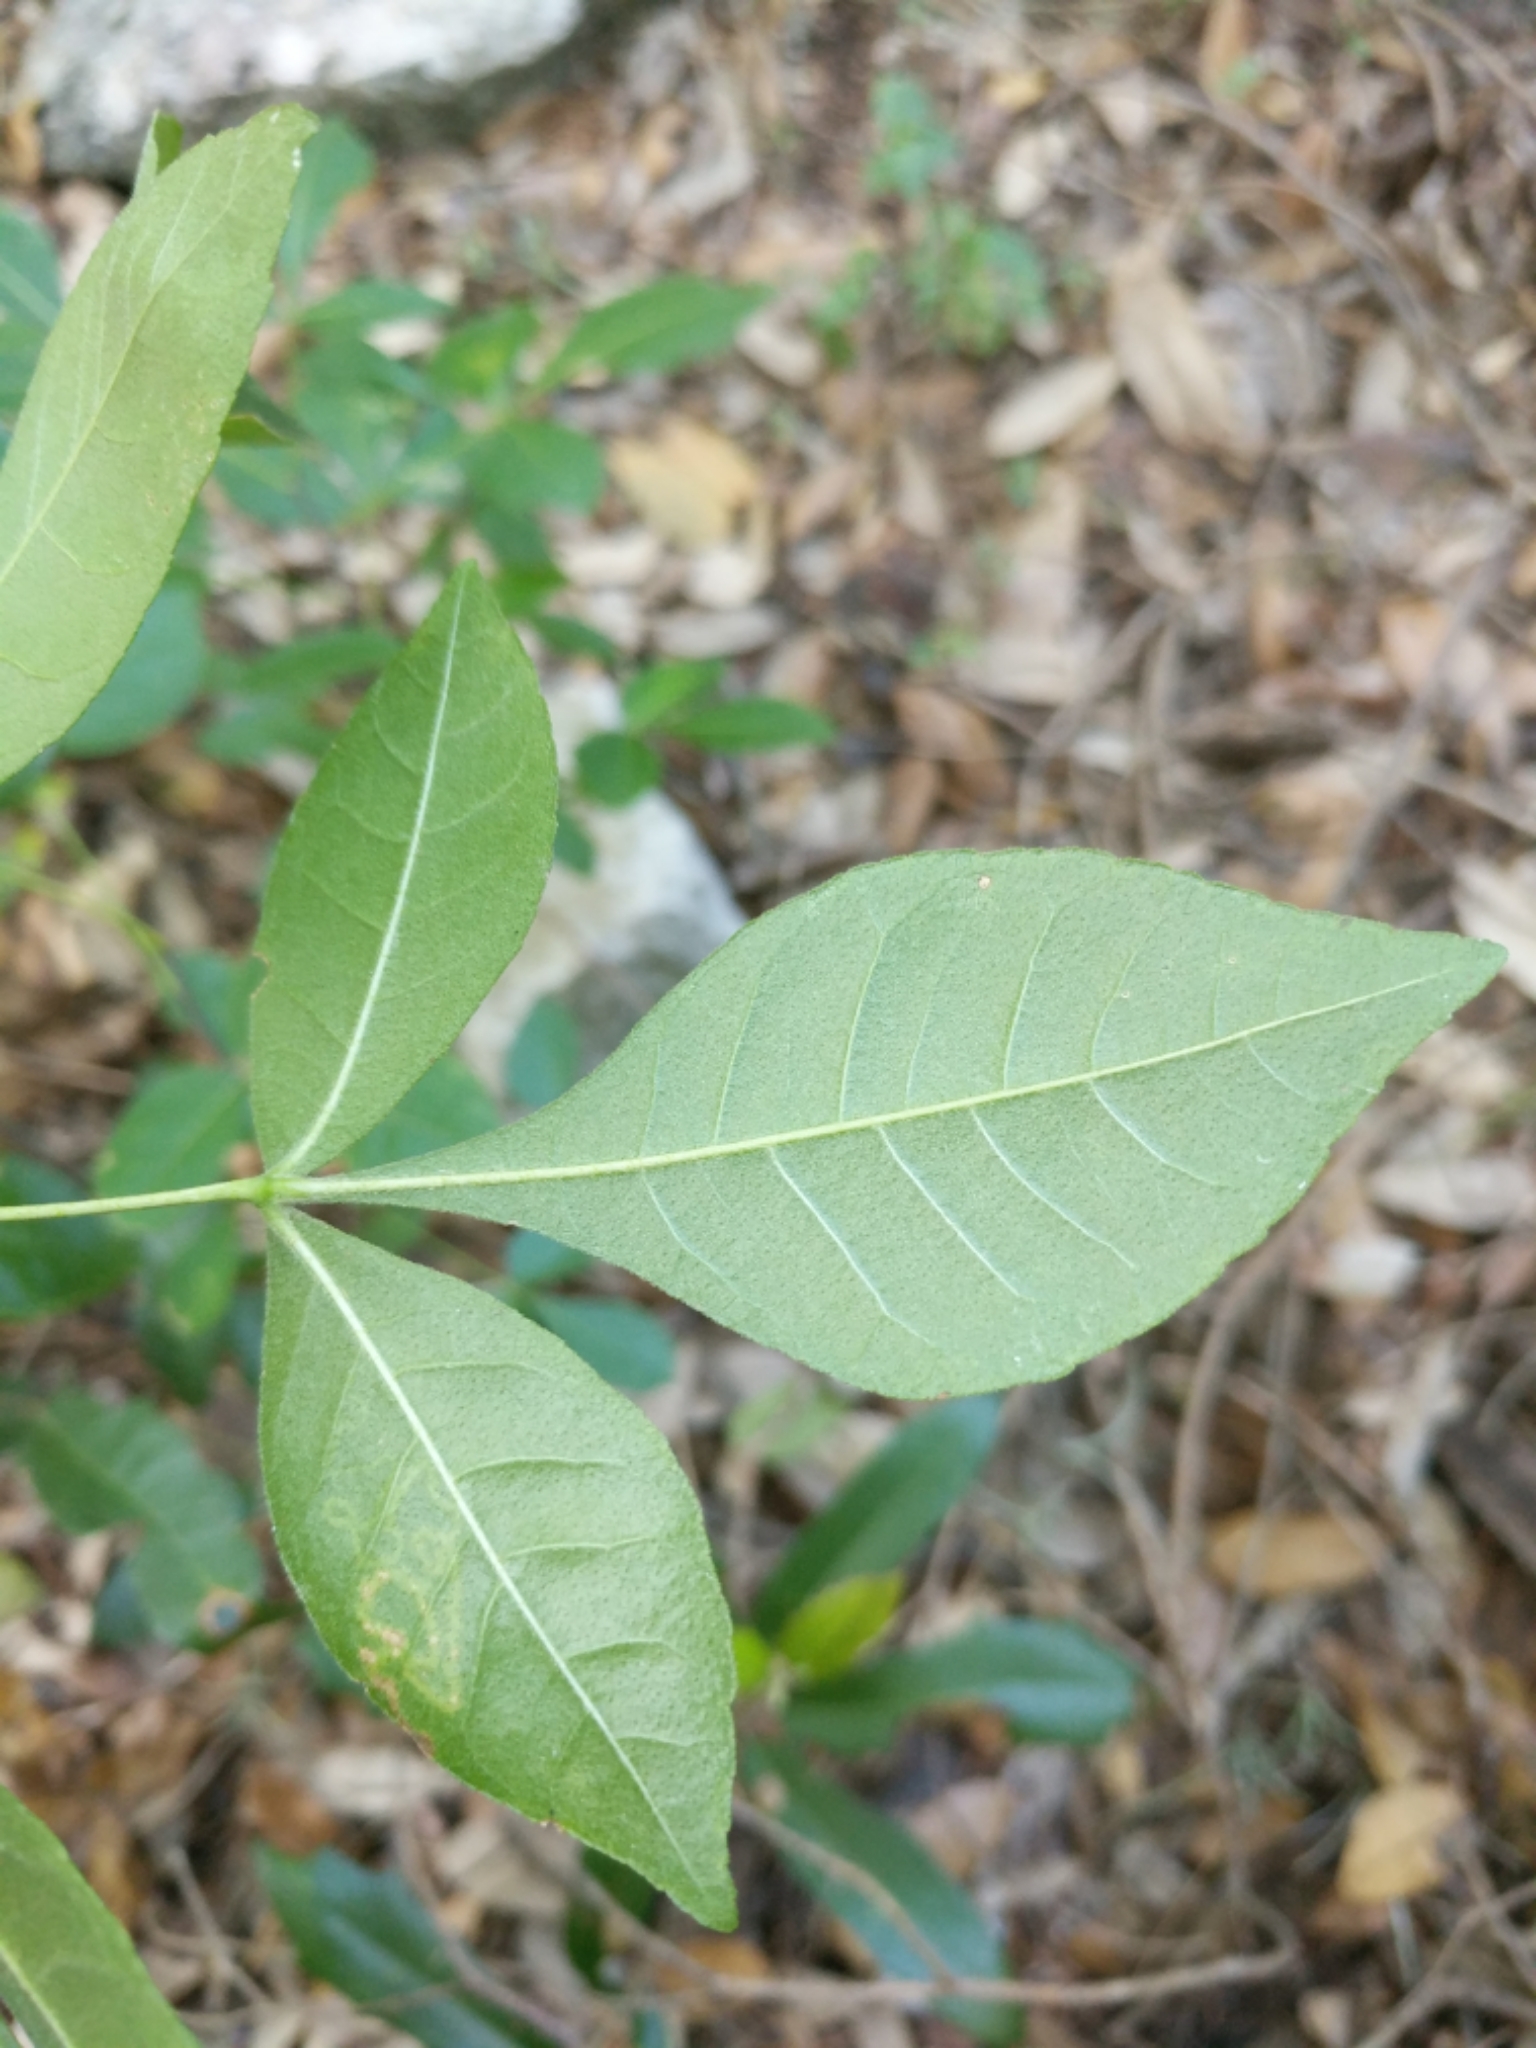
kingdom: Plantae
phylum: Tracheophyta
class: Magnoliopsida
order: Sapindales
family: Rutaceae
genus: Ptelea
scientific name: Ptelea trifoliata
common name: Common hop-tree
